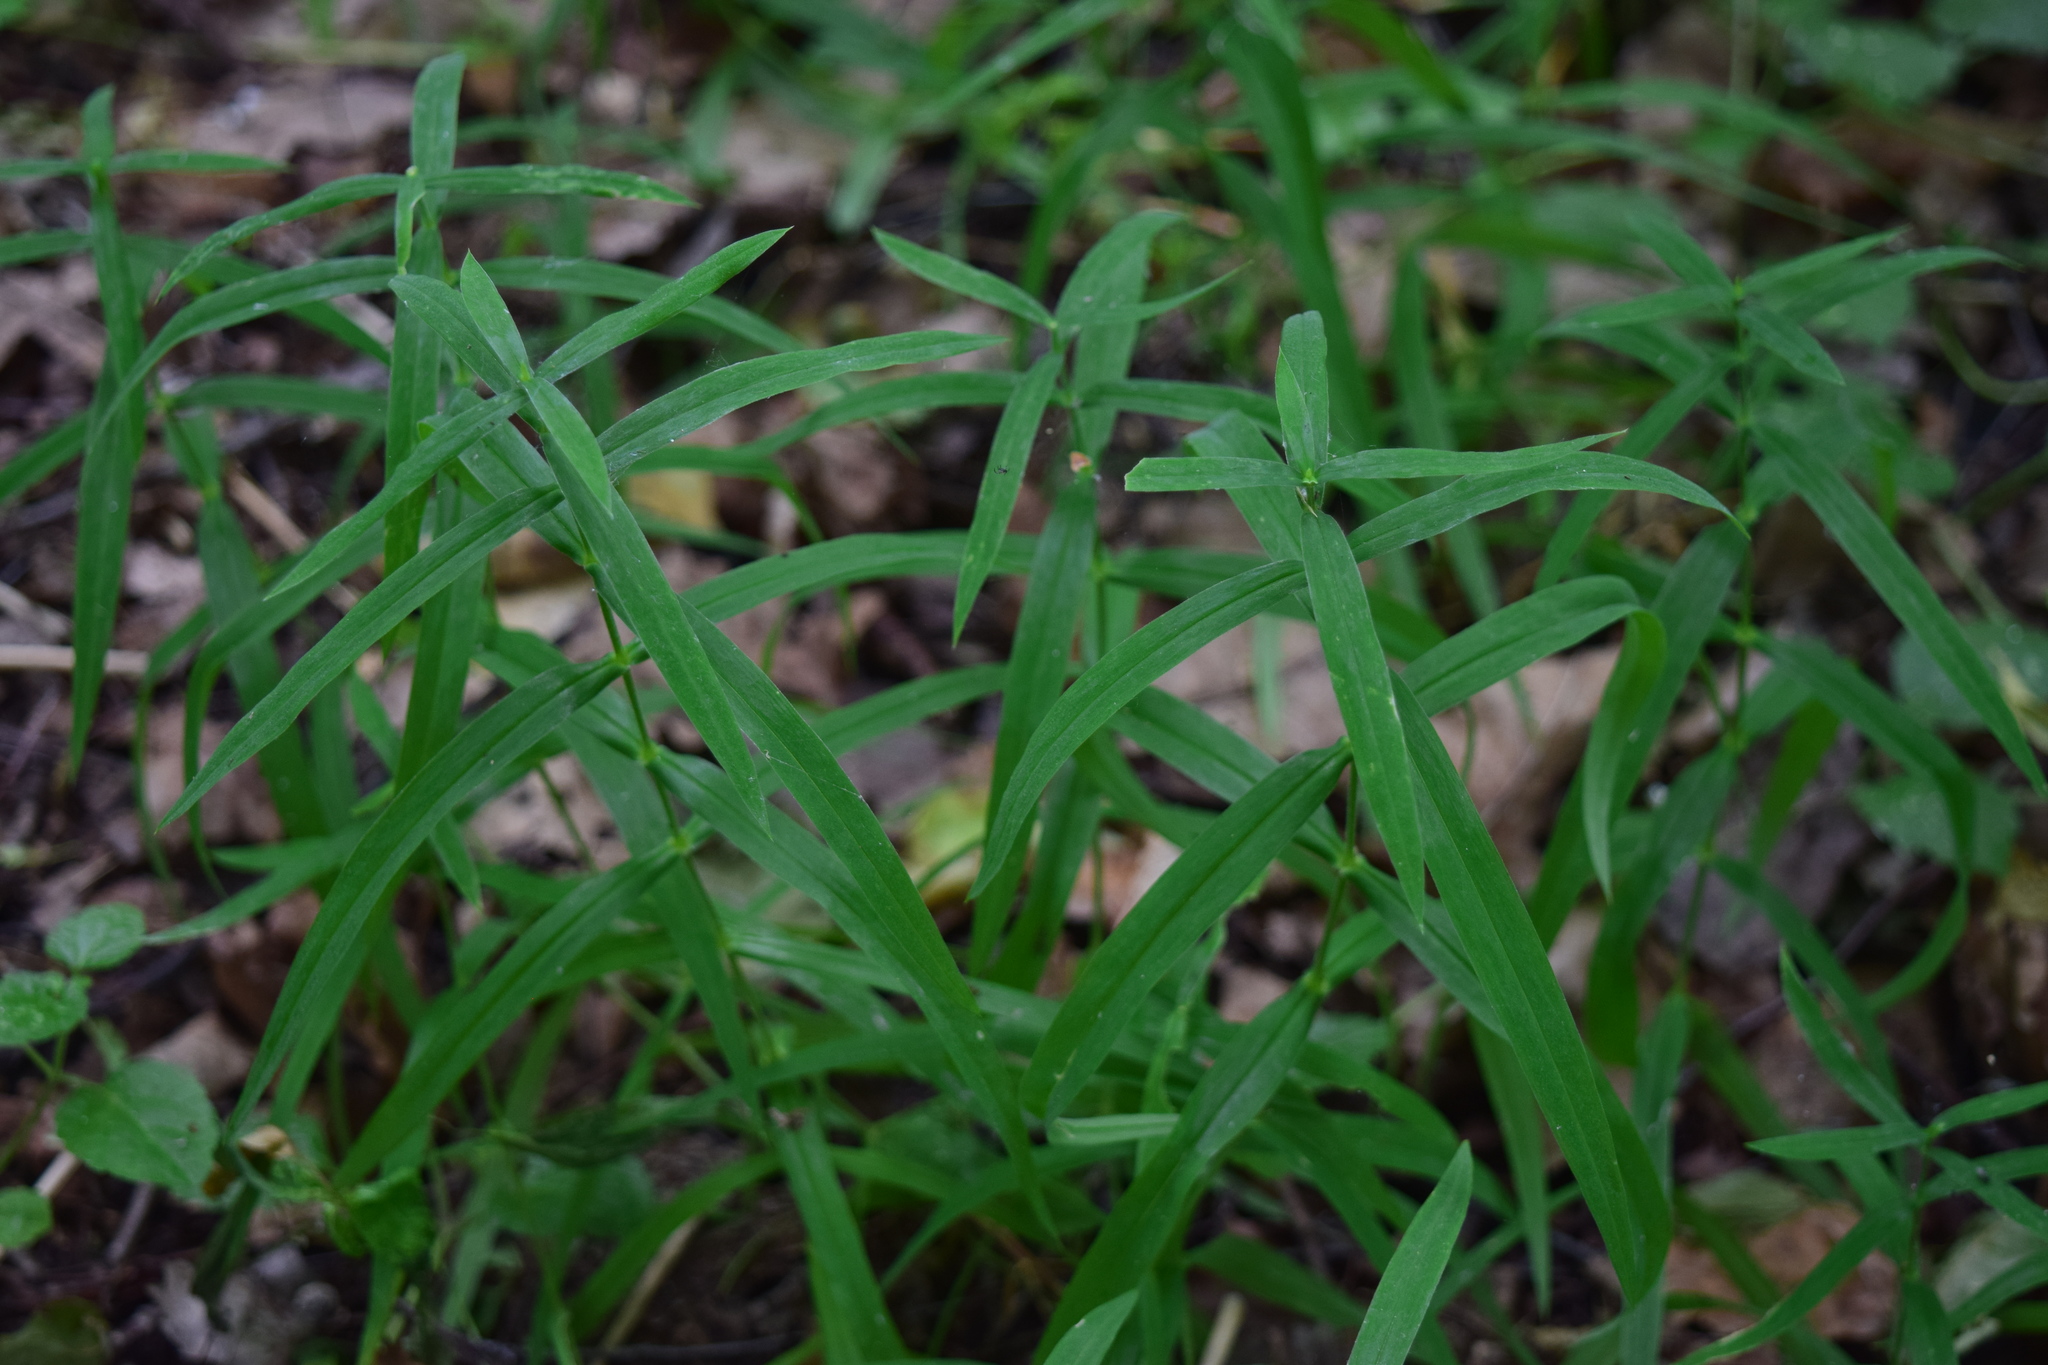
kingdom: Plantae
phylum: Tracheophyta
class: Magnoliopsida
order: Caryophyllales
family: Caryophyllaceae
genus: Rabelera
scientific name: Rabelera holostea
